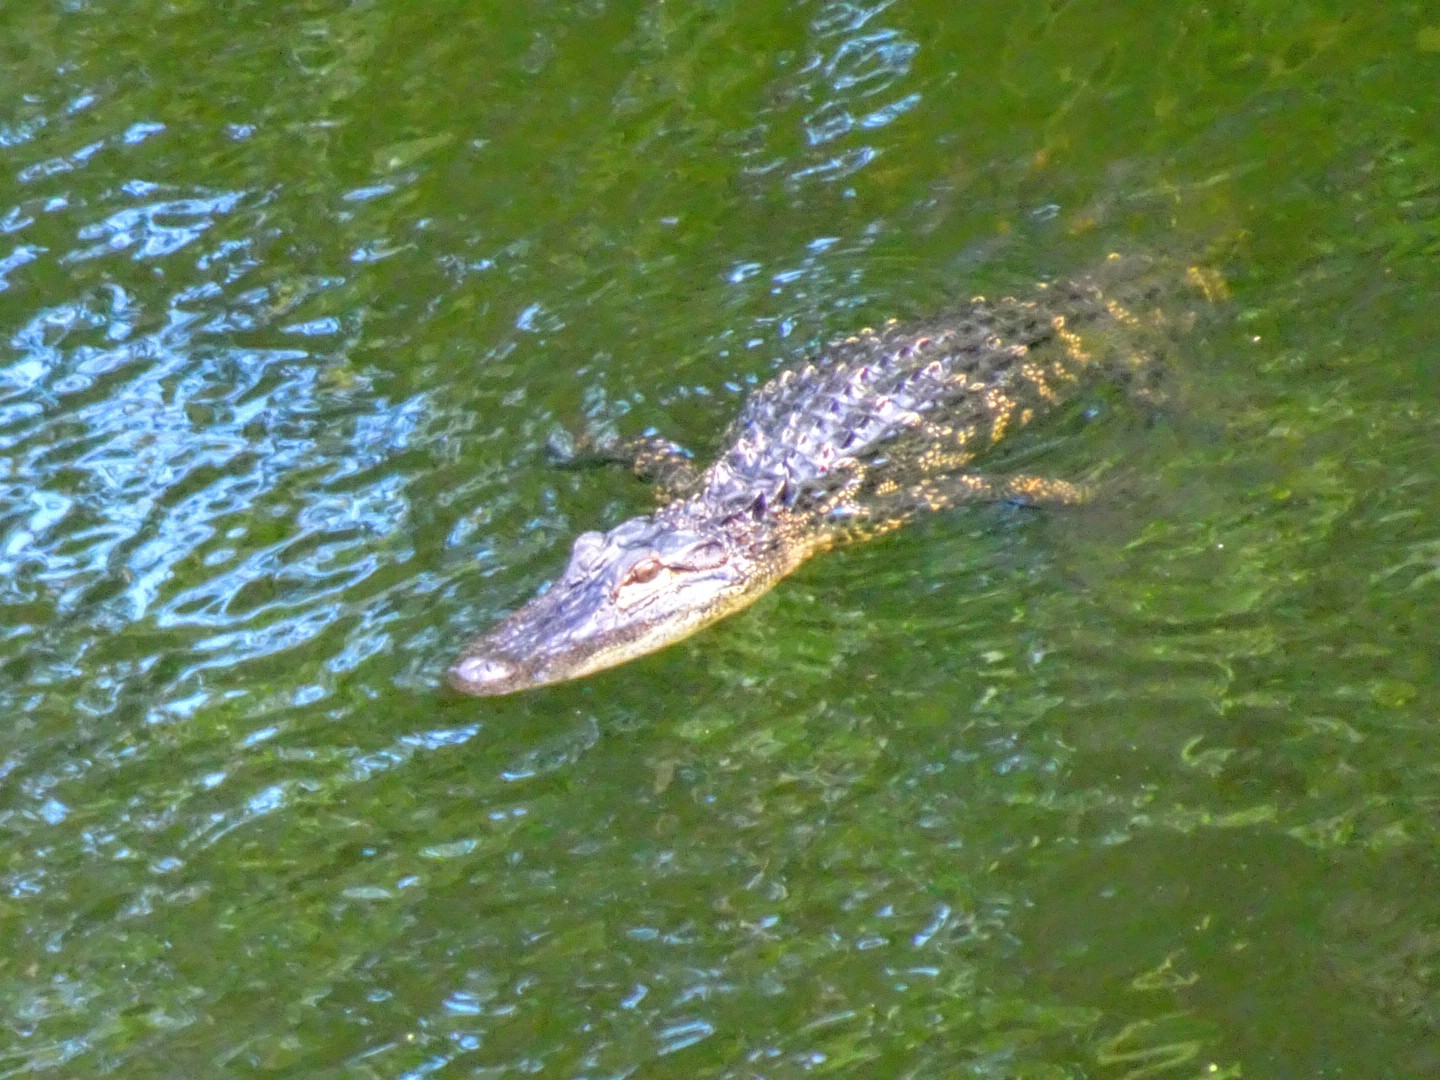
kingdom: Animalia
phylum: Chordata
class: Crocodylia
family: Alligatoridae
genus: Alligator
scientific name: Alligator mississippiensis
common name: American alligator
